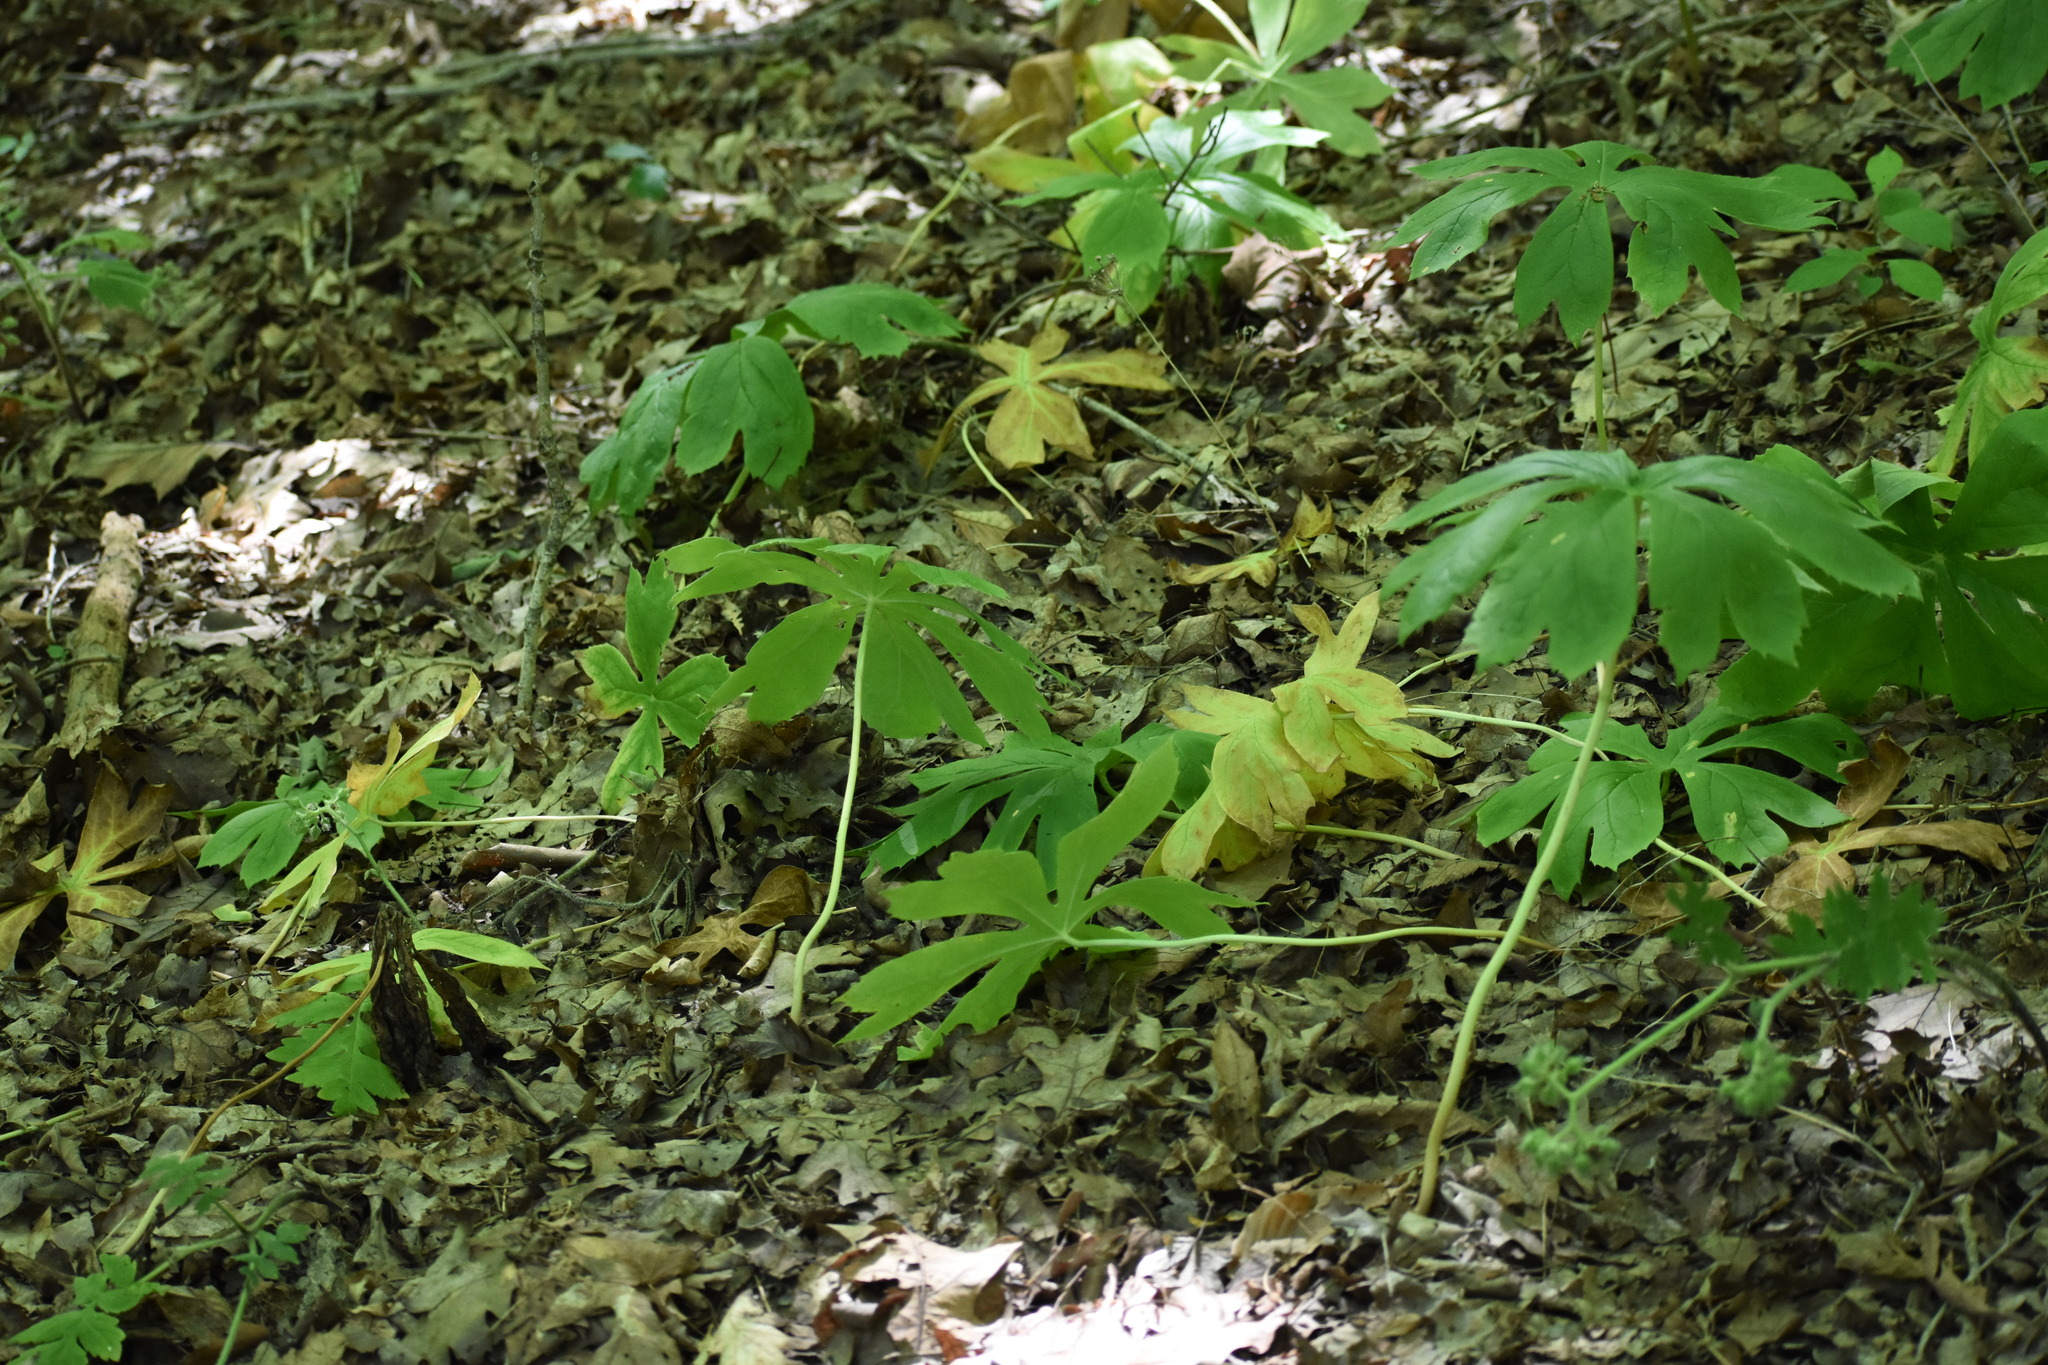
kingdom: Plantae
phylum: Tracheophyta
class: Magnoliopsida
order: Ranunculales
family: Berberidaceae
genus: Podophyllum
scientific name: Podophyllum peltatum
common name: Wild mandrake
